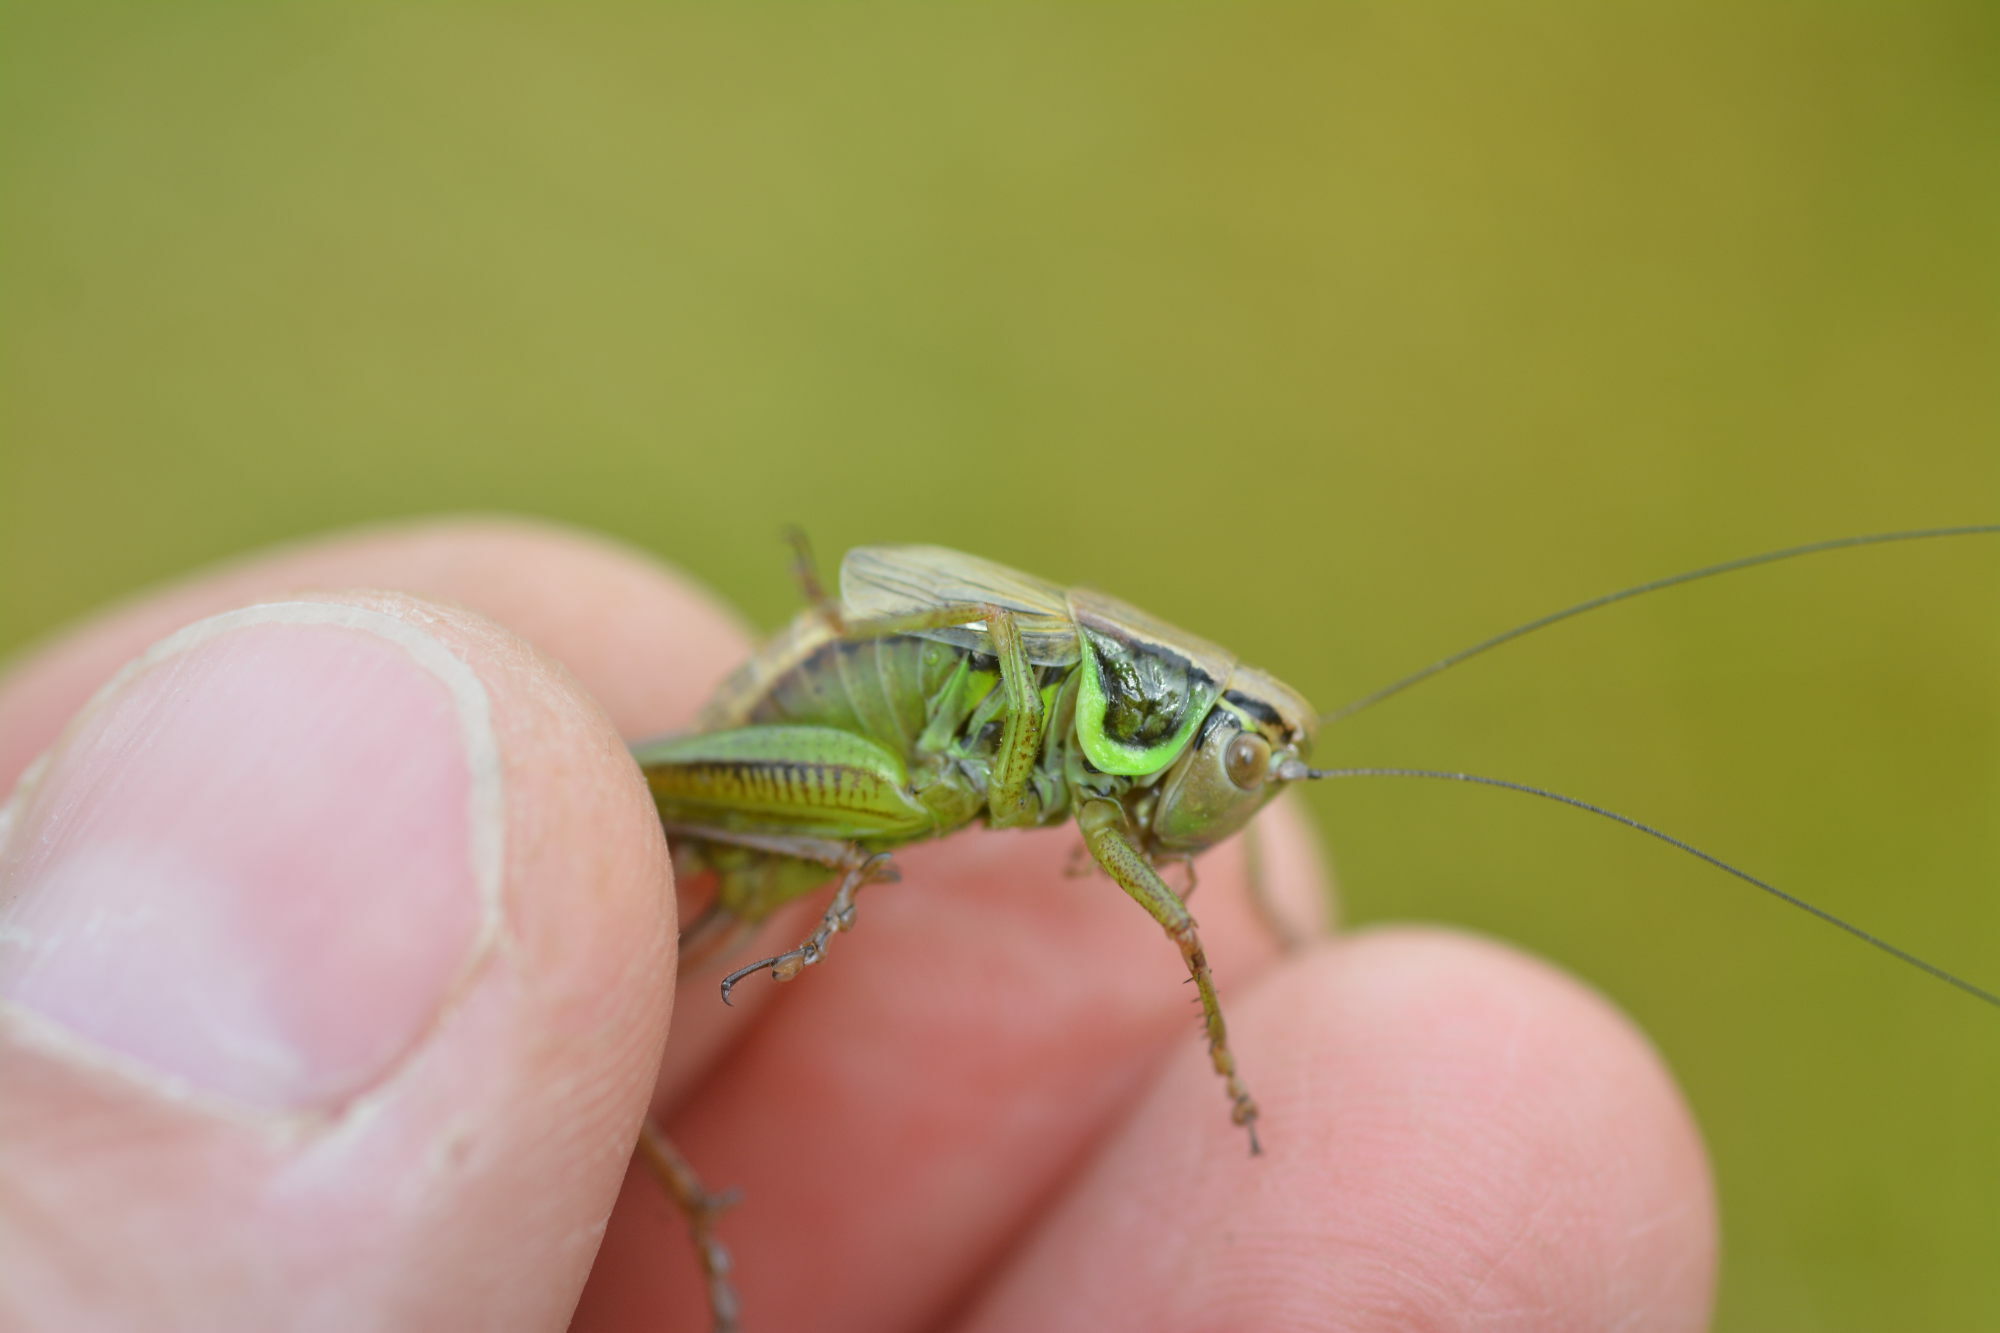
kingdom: Animalia
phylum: Arthropoda
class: Insecta
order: Orthoptera
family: Tettigoniidae
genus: Roeseliana
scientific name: Roeseliana roeselii
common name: Roesel's bush cricket
